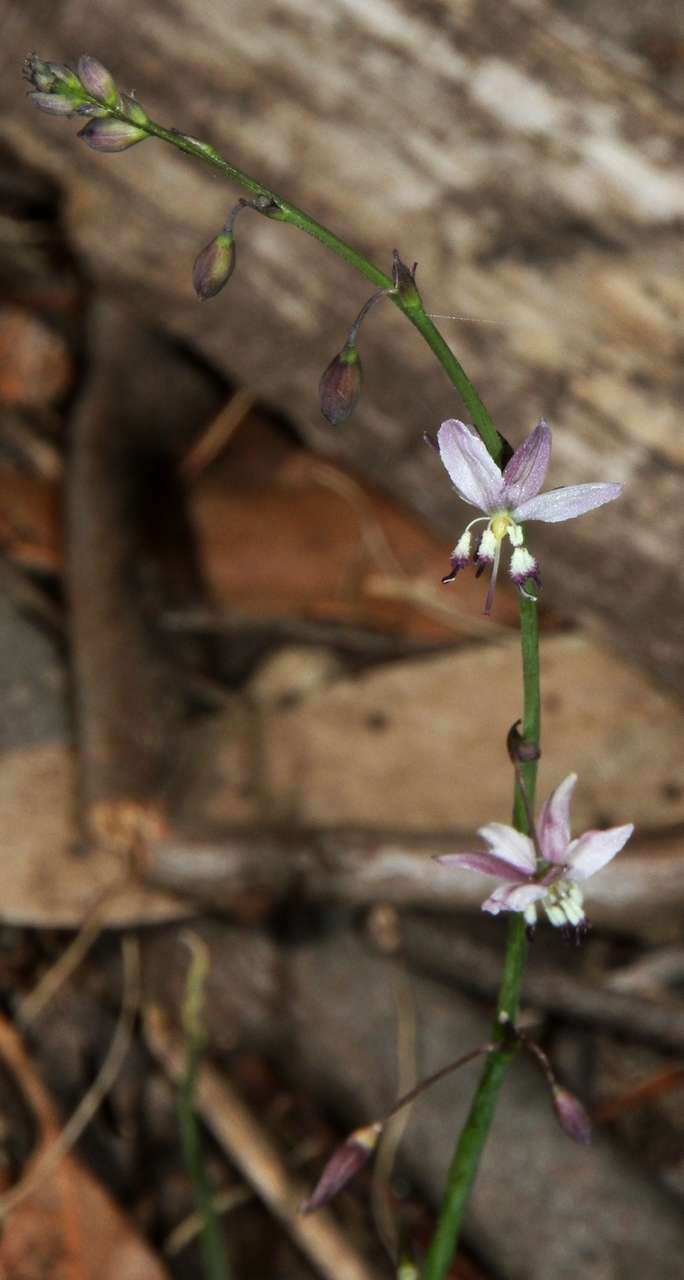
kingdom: Plantae
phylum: Tracheophyta
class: Liliopsida
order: Asparagales
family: Asparagaceae
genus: Arthropodium
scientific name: Arthropodium milleflorum
